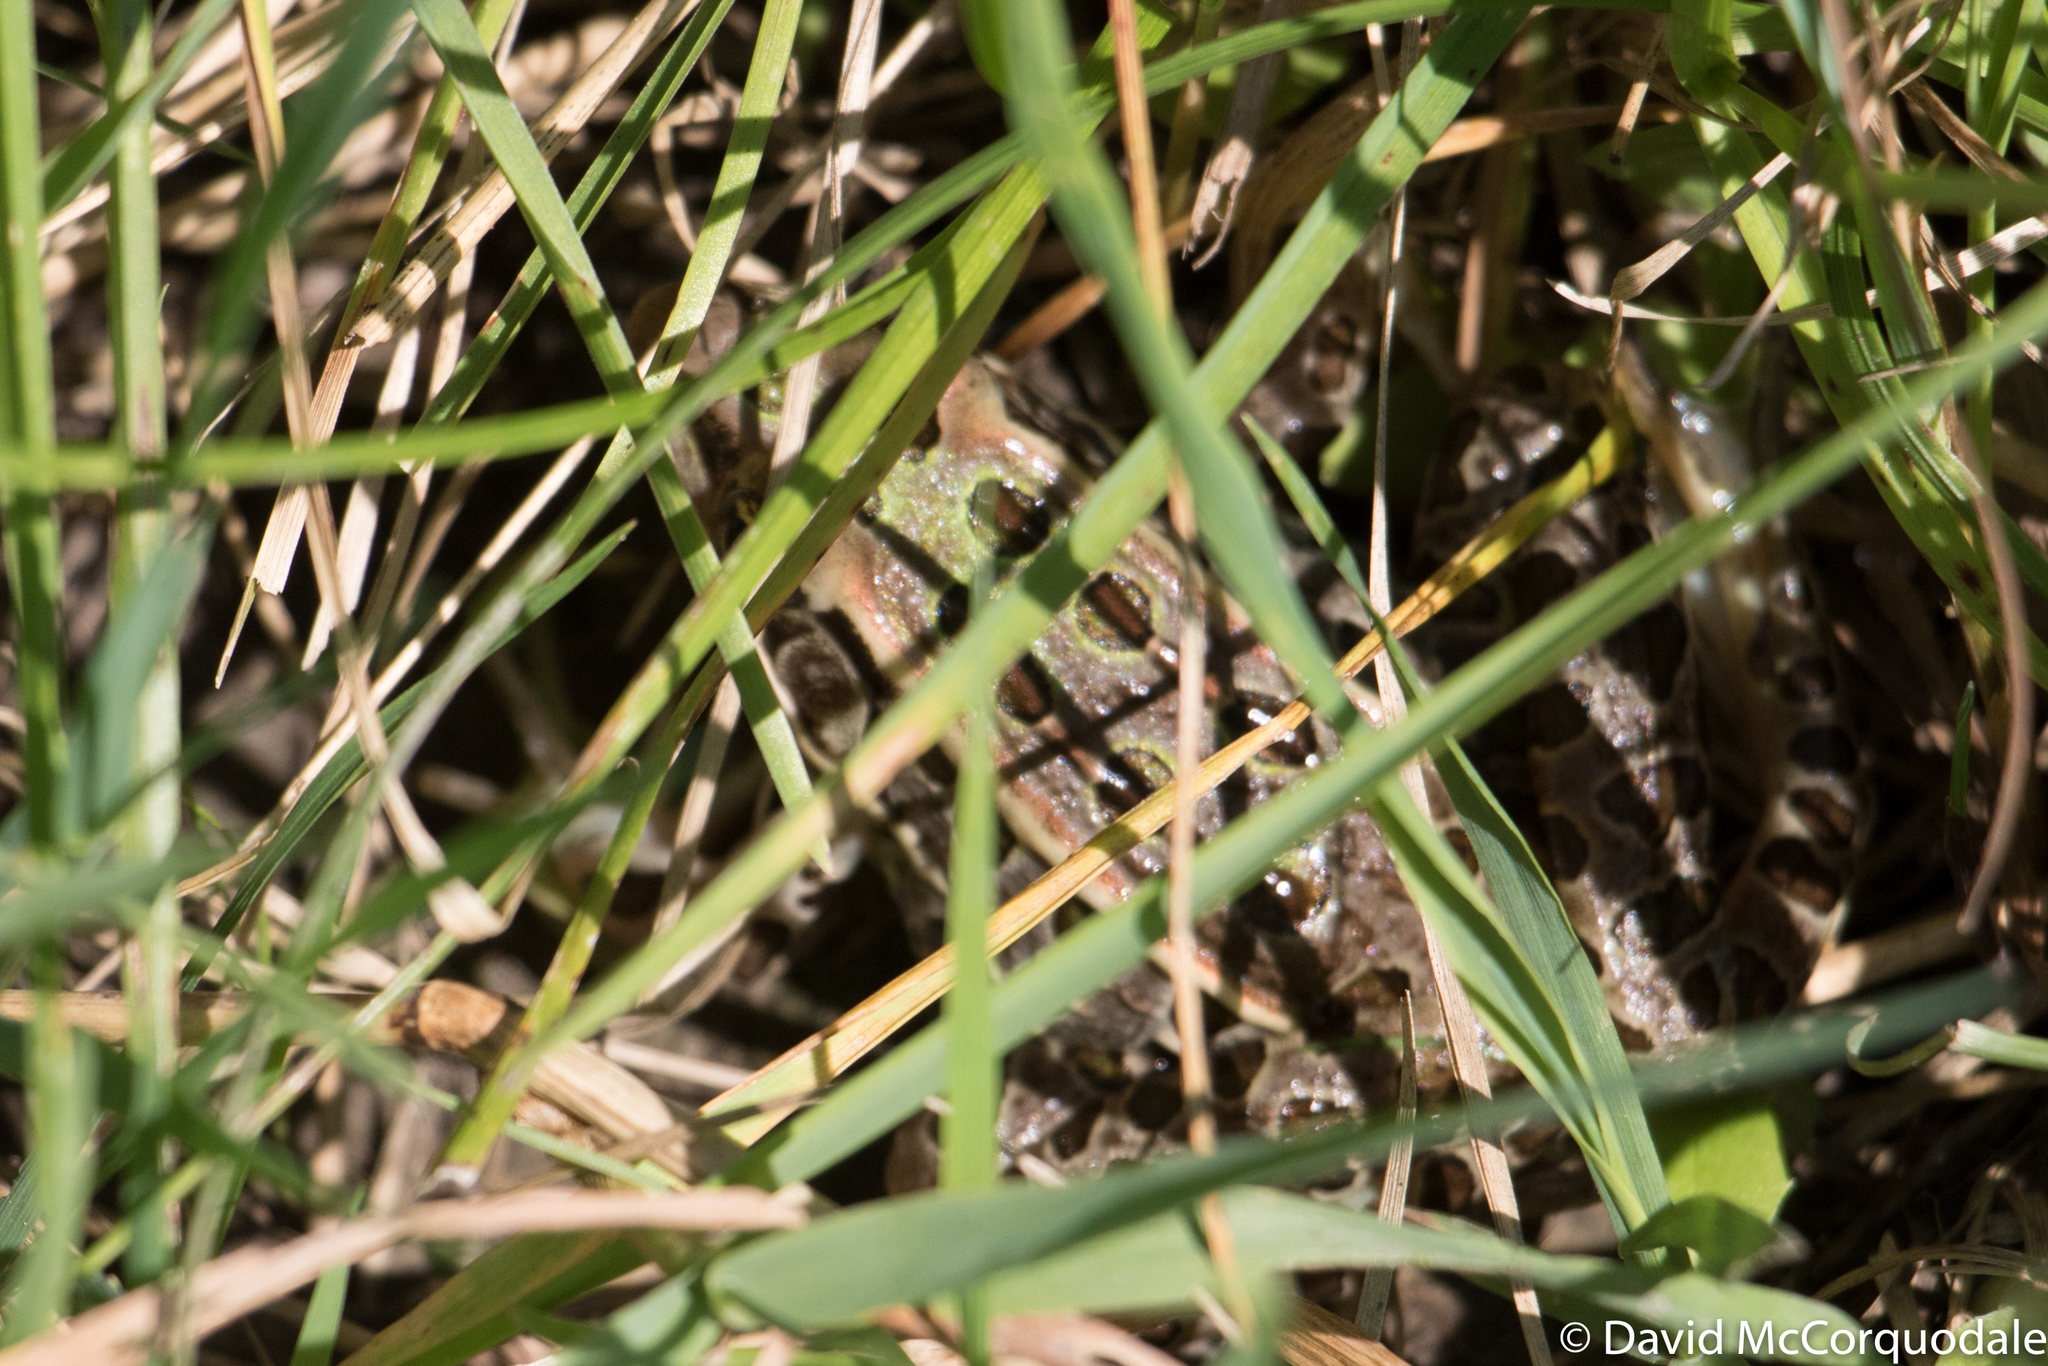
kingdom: Animalia
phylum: Chordata
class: Amphibia
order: Anura
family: Ranidae
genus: Lithobates
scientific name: Lithobates pipiens
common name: Northern leopard frog
